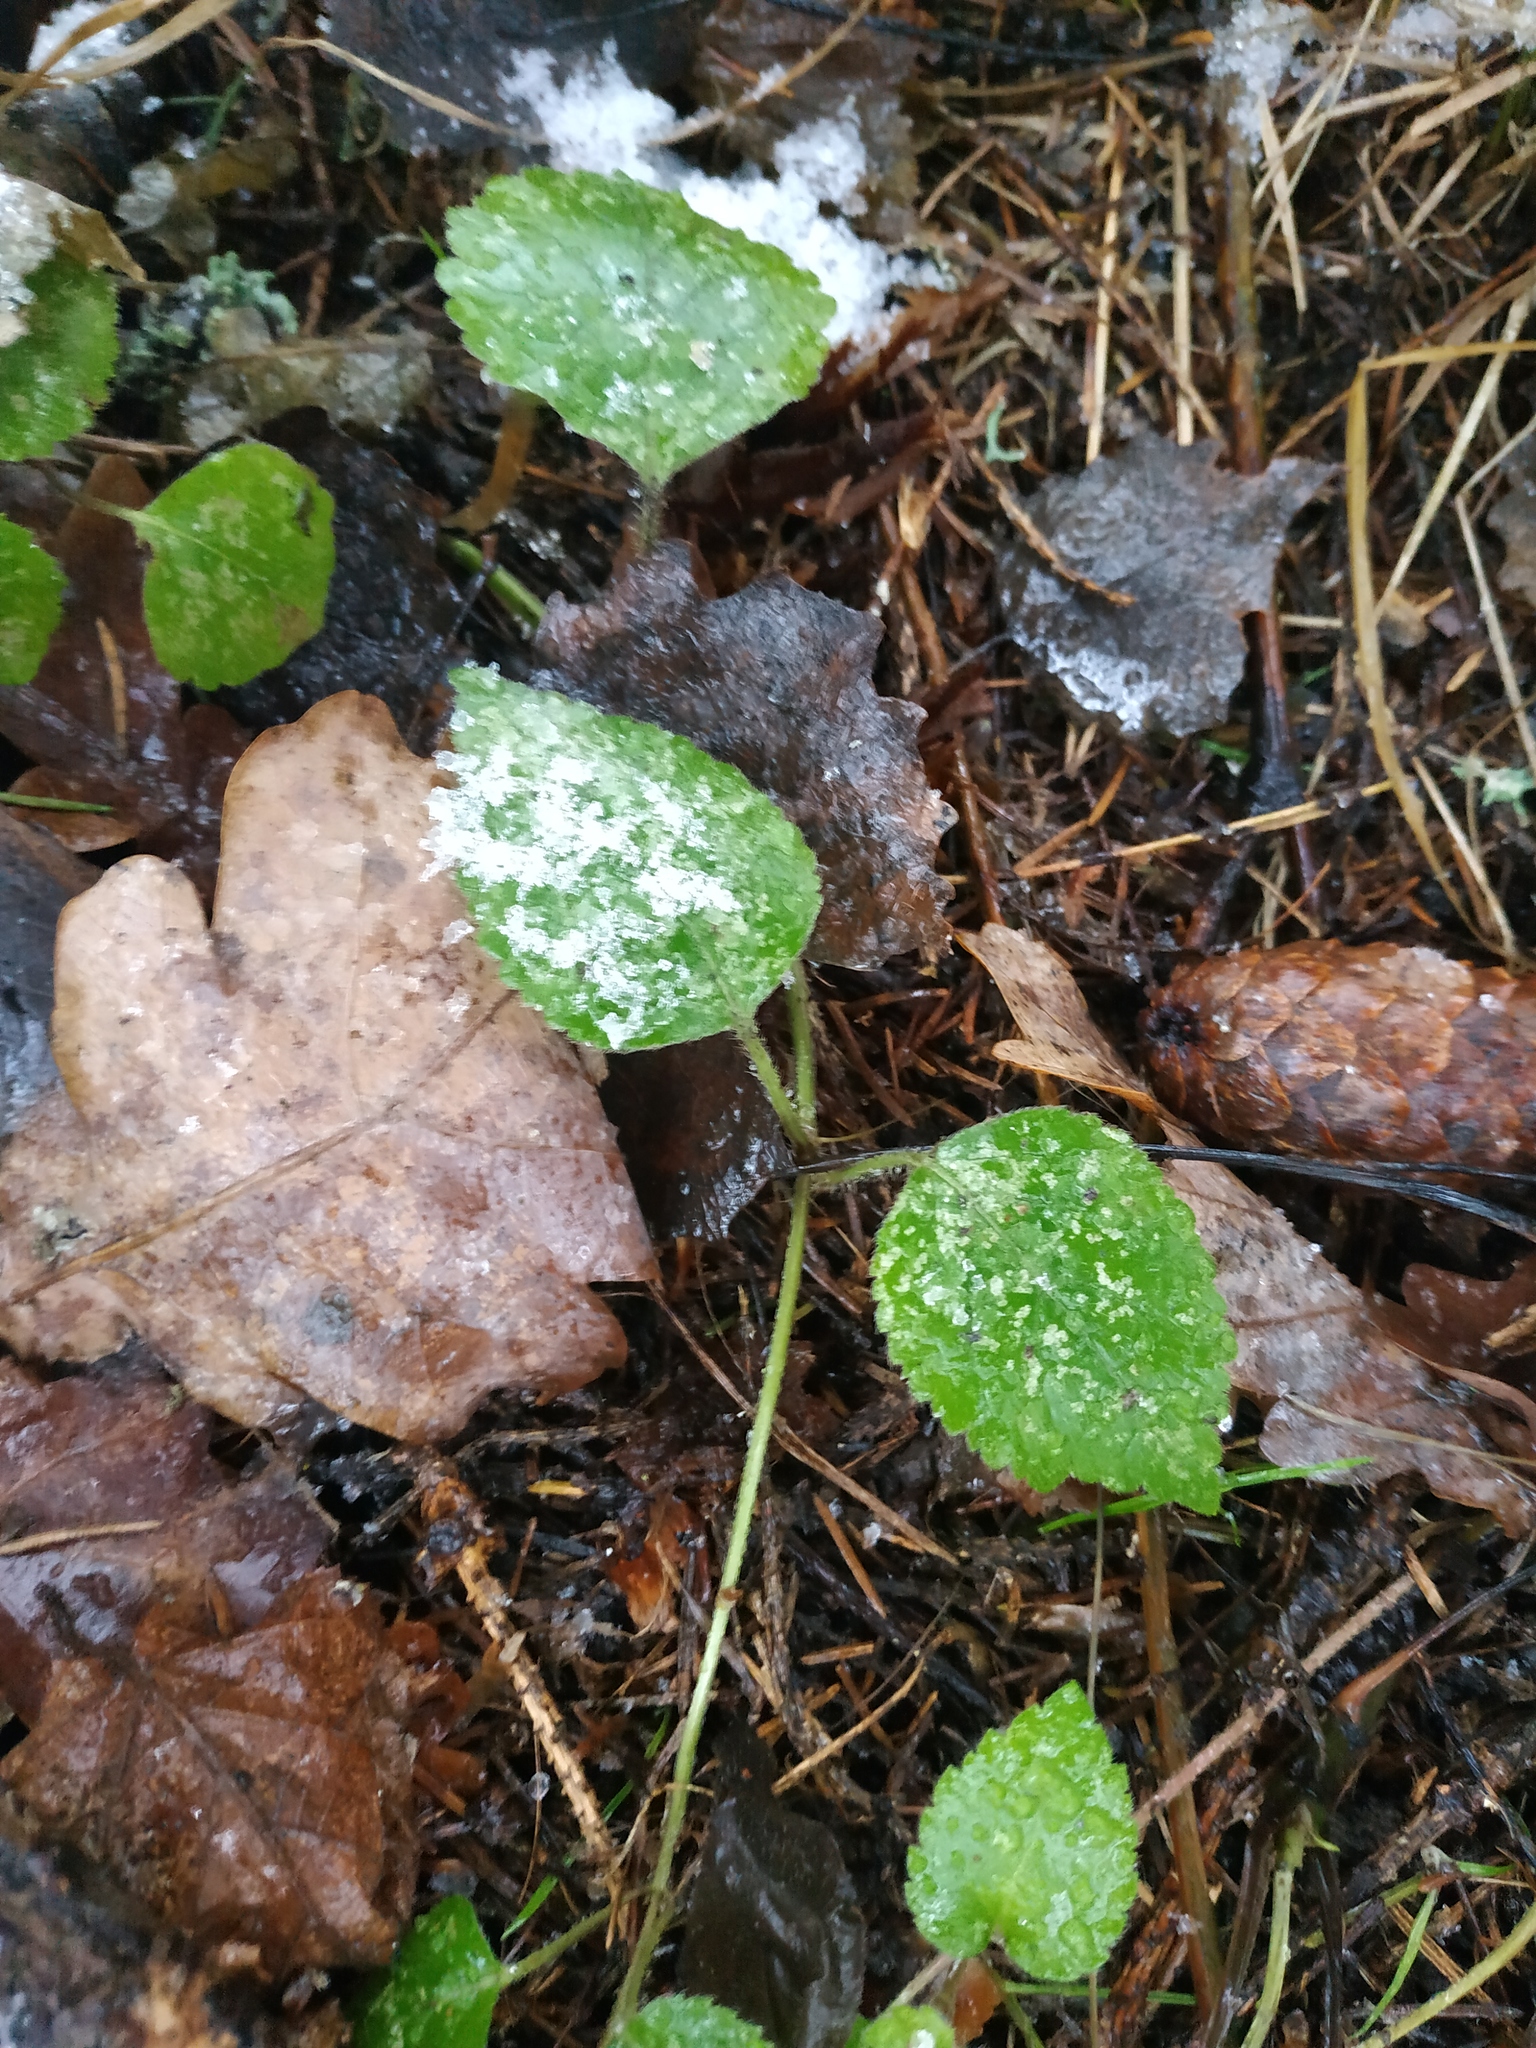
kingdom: Plantae
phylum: Tracheophyta
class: Magnoliopsida
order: Lamiales
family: Lamiaceae
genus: Lamium
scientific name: Lamium galeobdolon
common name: Yellow archangel
